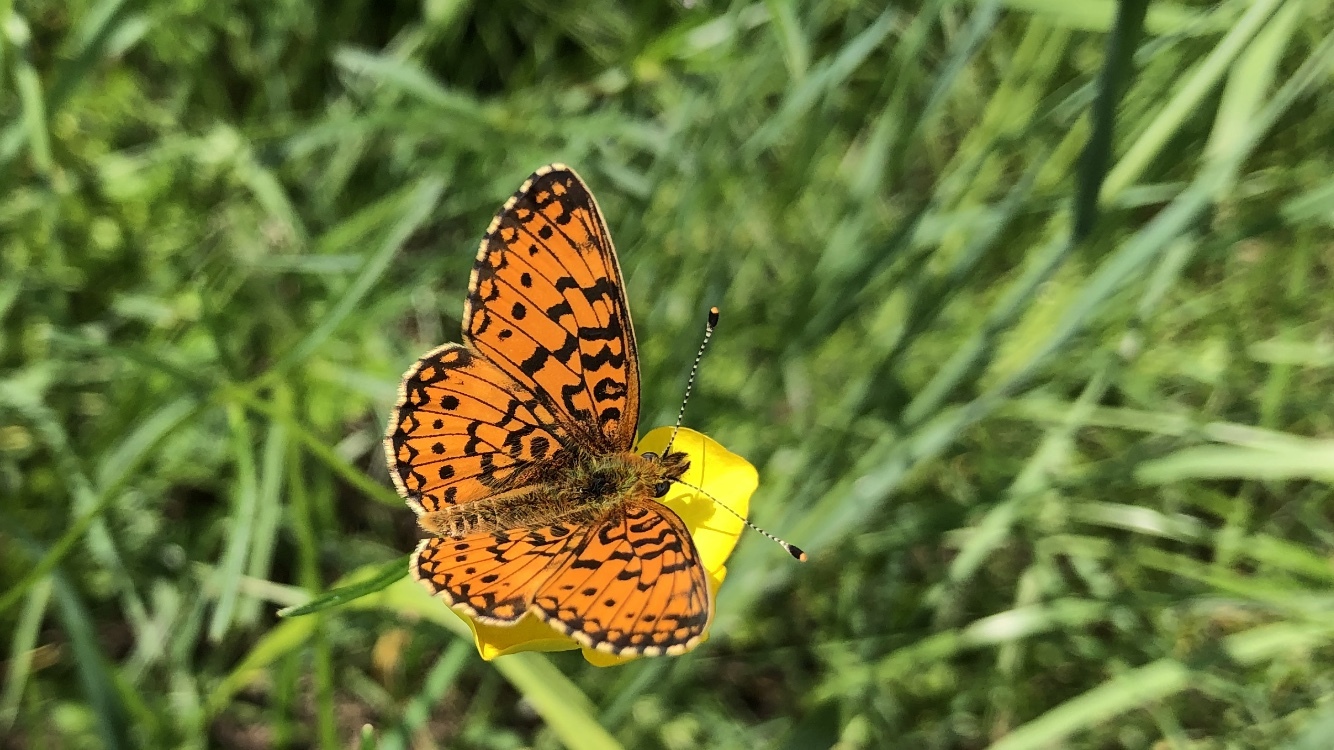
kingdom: Animalia
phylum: Arthropoda
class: Insecta
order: Lepidoptera
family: Nymphalidae
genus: Boloria
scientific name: Boloria selene
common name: Small pearl-bordered fritillary
